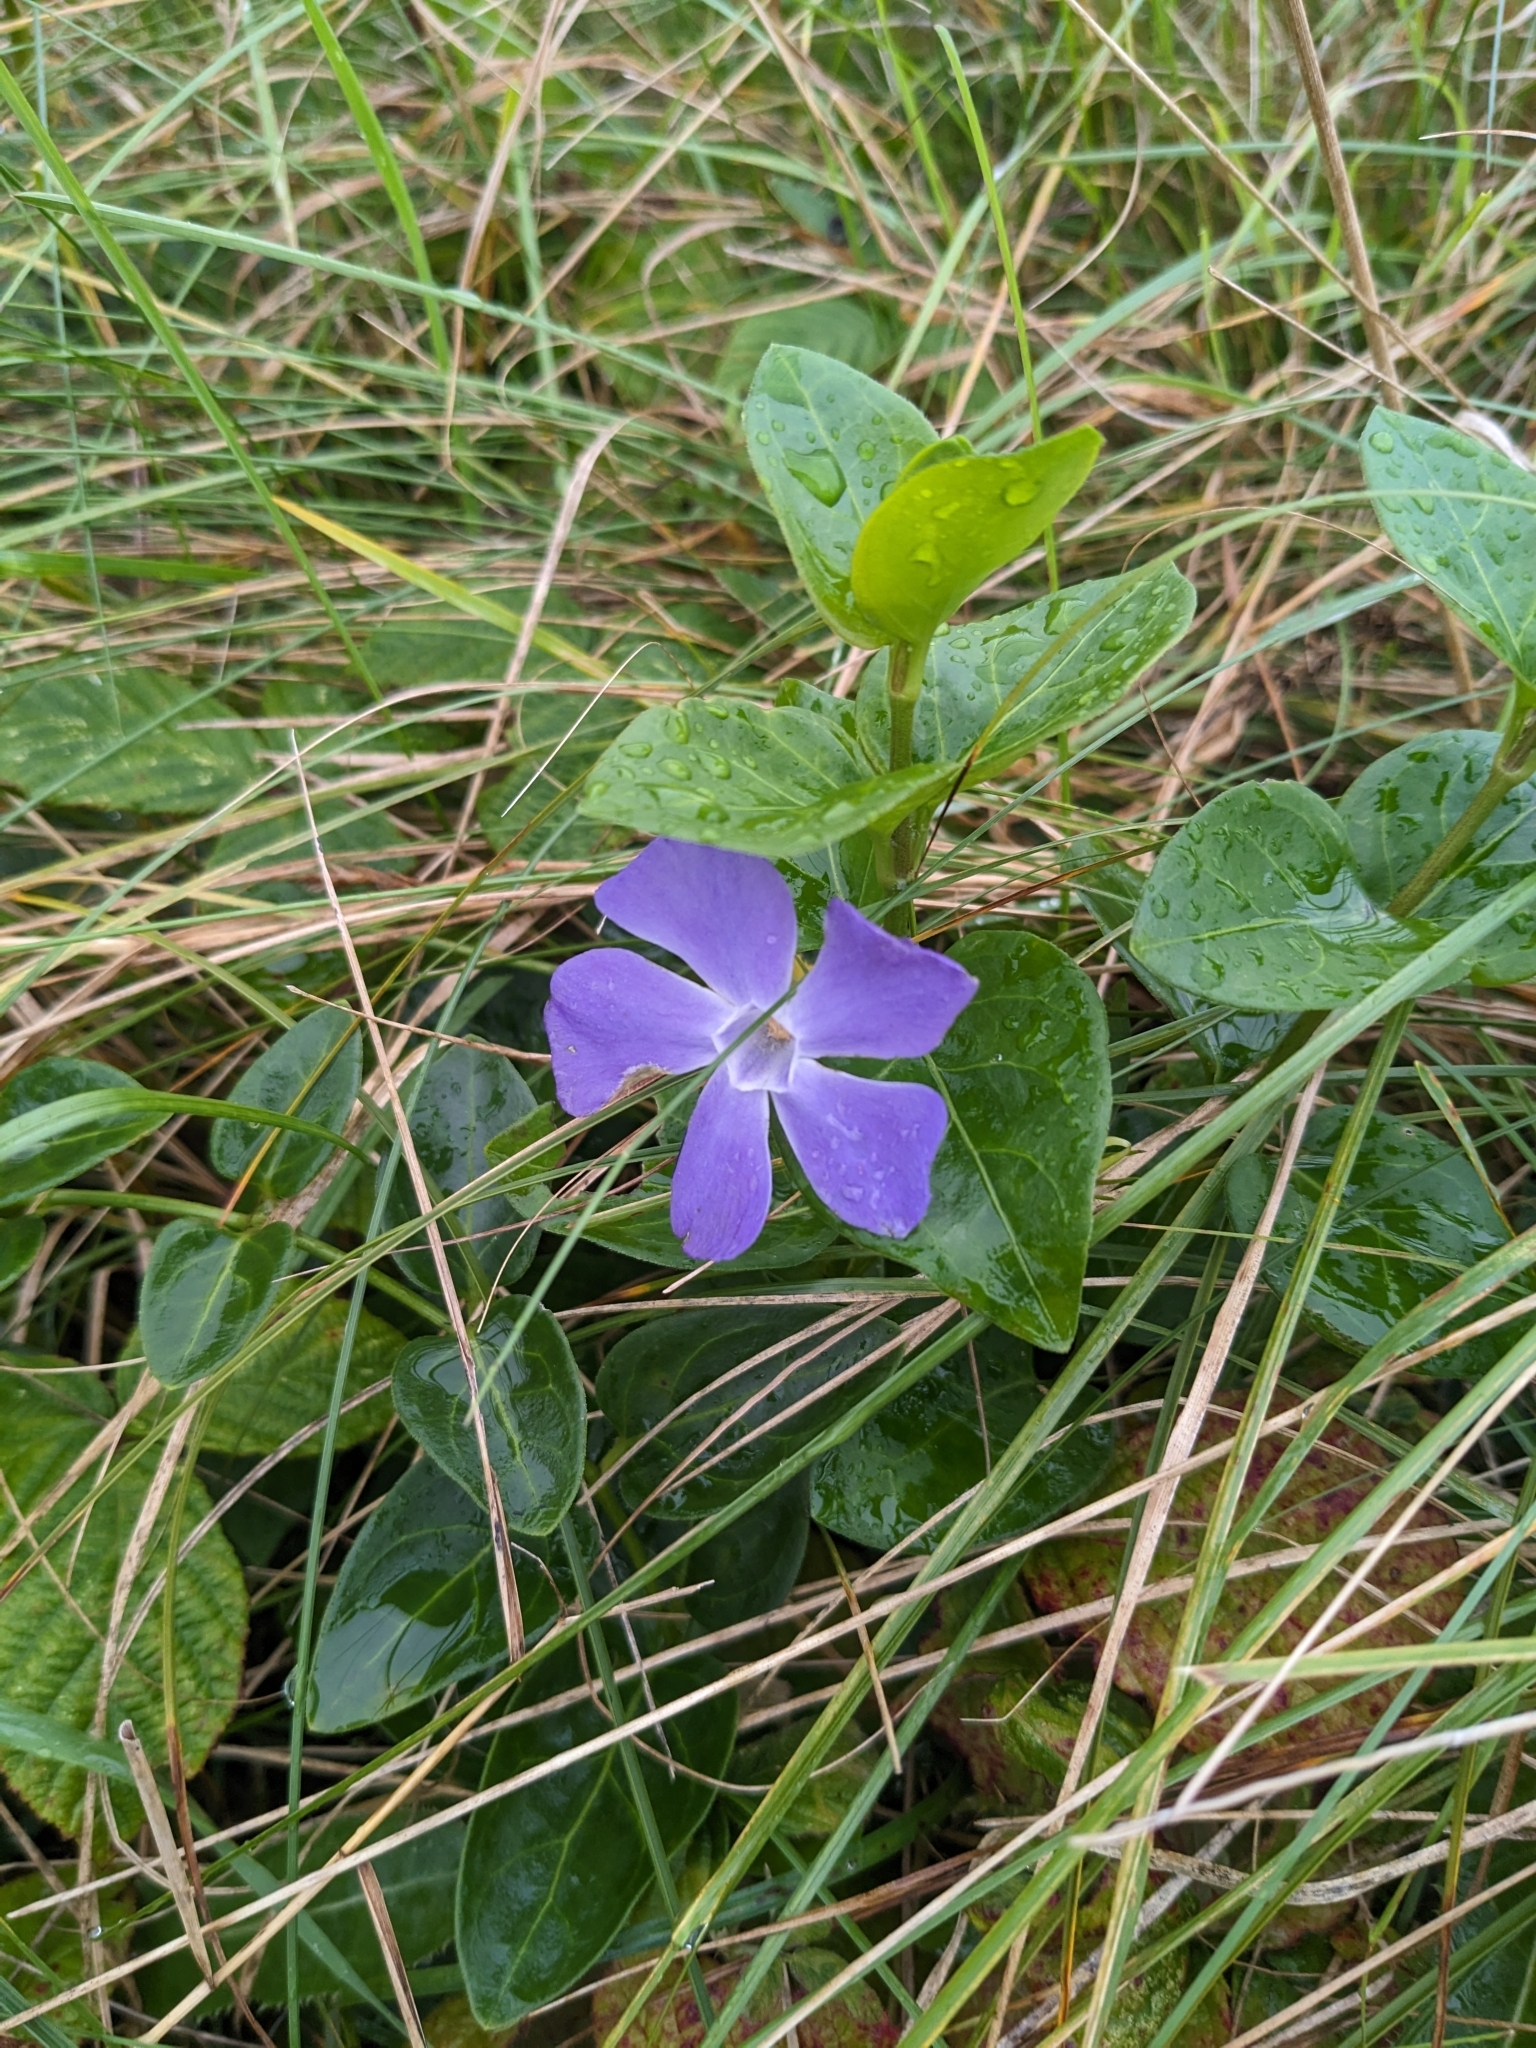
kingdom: Plantae
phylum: Tracheophyta
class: Magnoliopsida
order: Gentianales
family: Apocynaceae
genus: Vinca
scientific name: Vinca major
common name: Greater periwinkle
